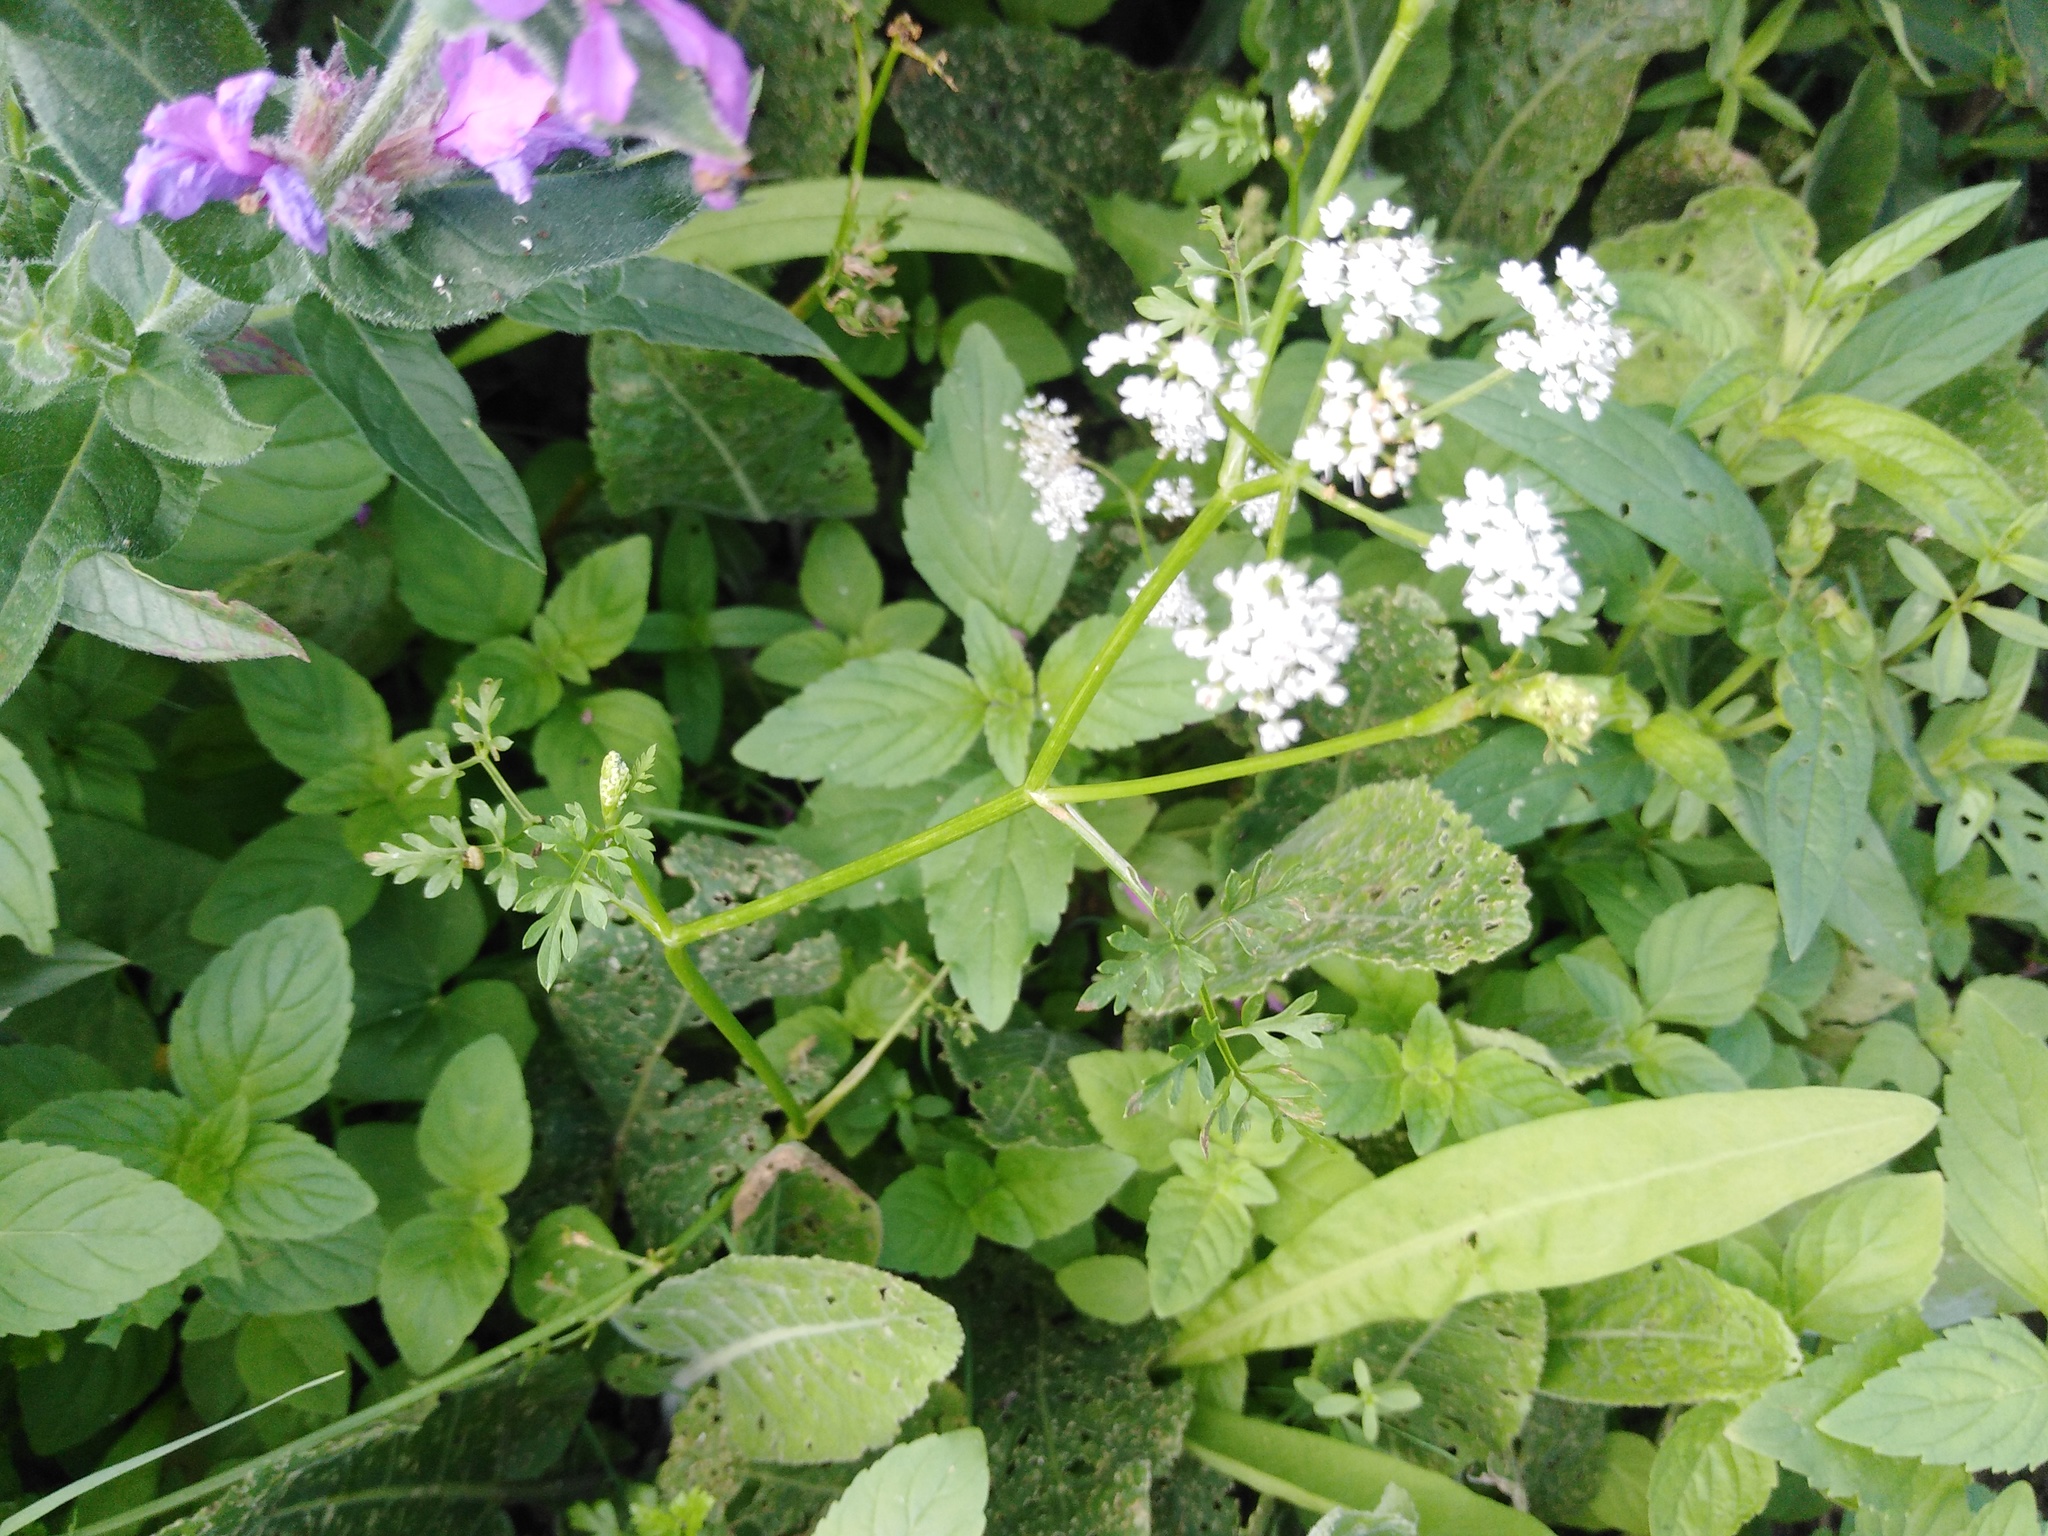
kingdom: Plantae
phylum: Tracheophyta
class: Magnoliopsida
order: Apiales
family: Apiaceae
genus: Oenanthe
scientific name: Oenanthe aquatica
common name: Fine-leaved water-dropwort
